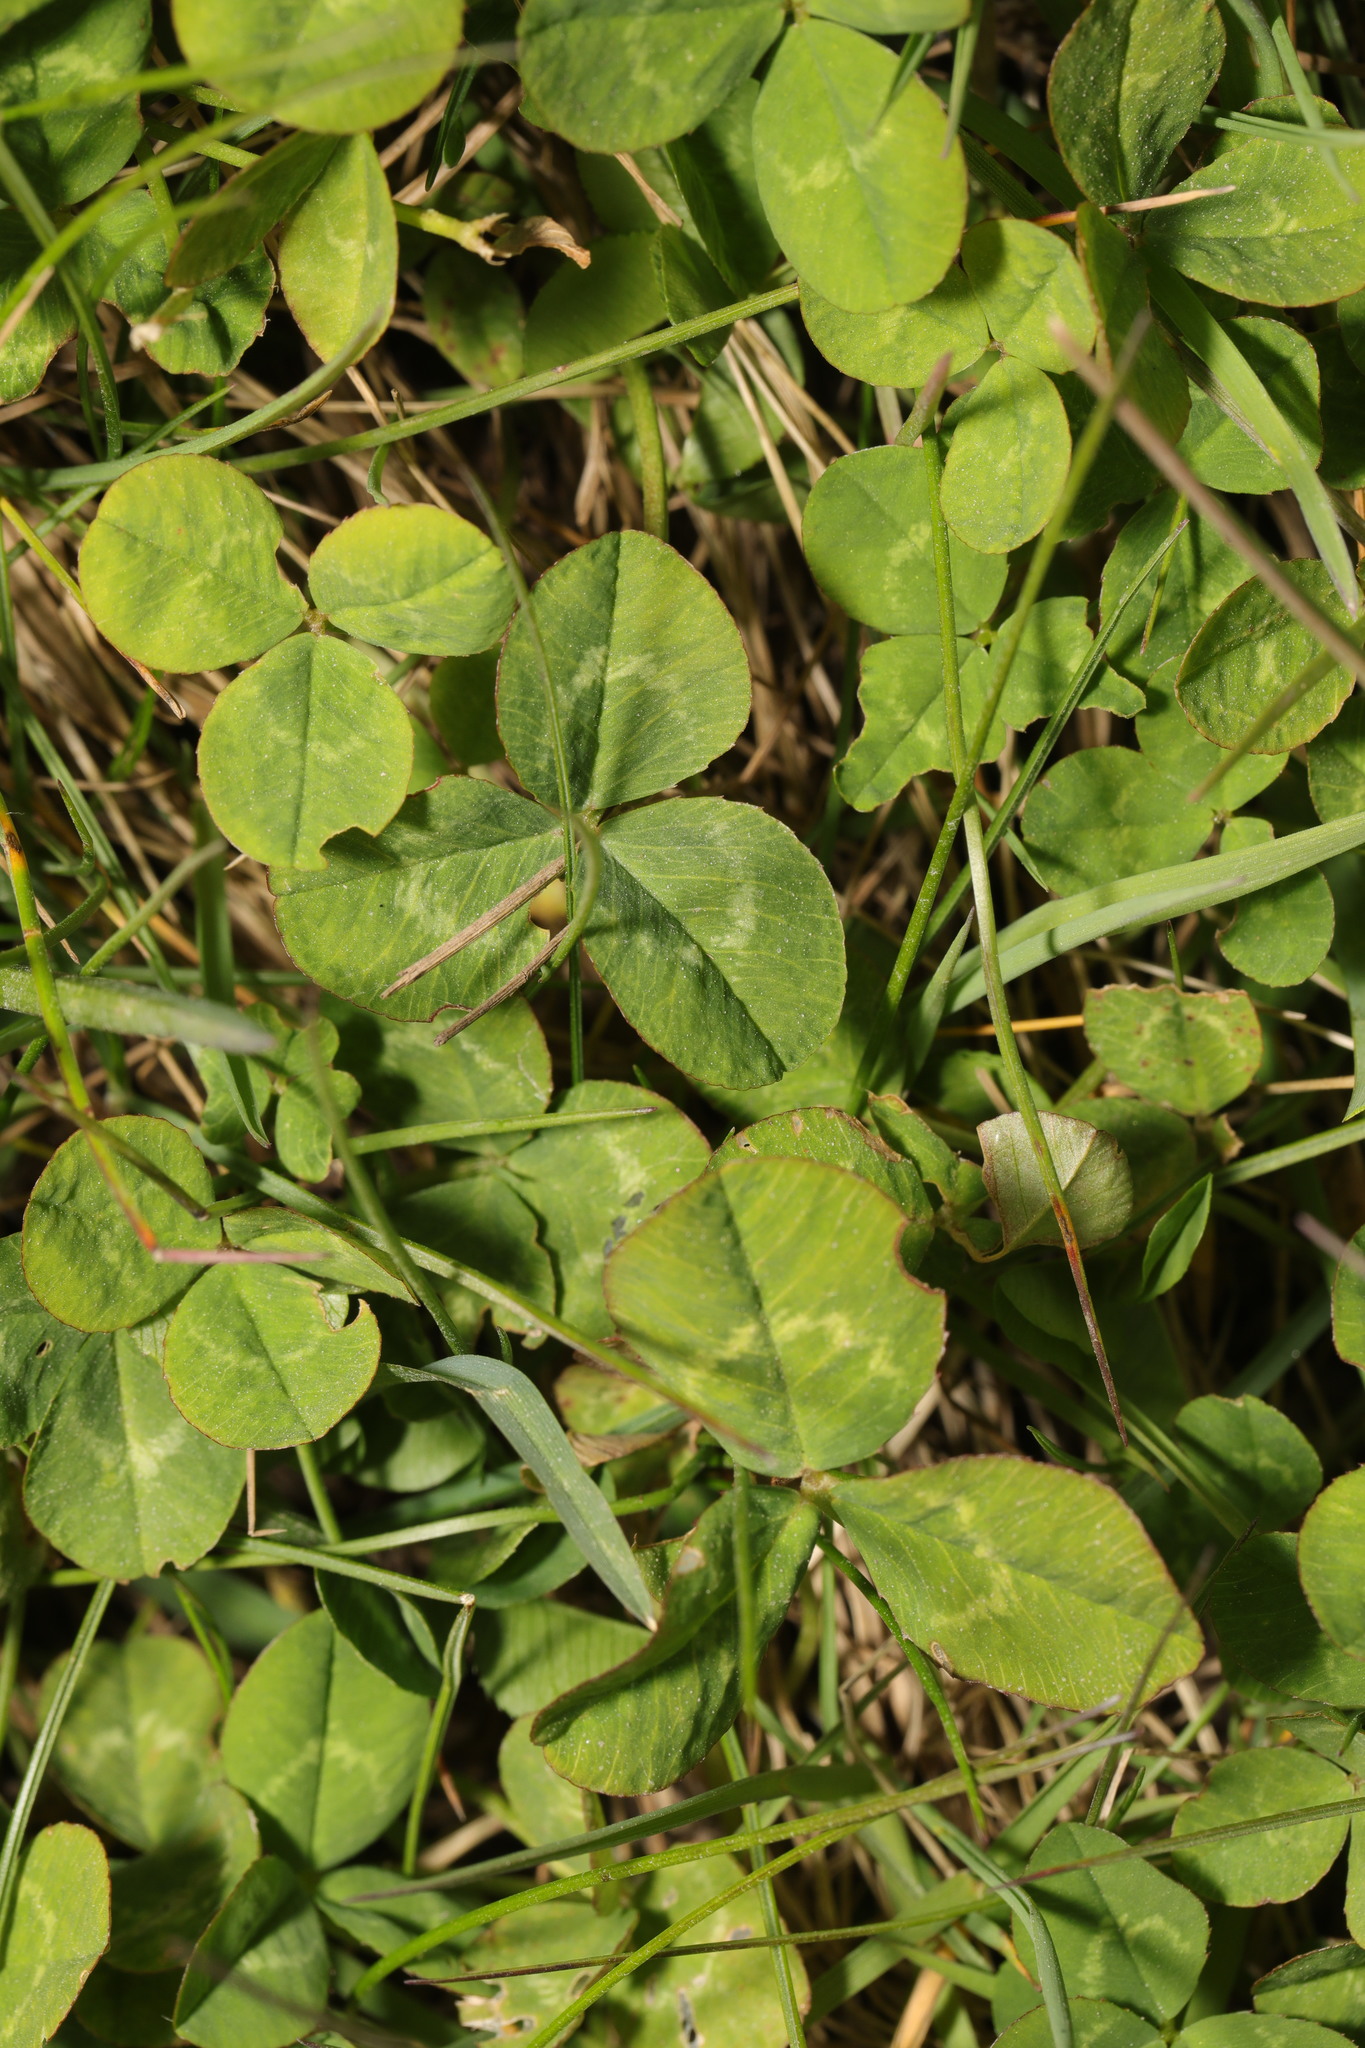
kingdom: Plantae
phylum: Tracheophyta
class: Magnoliopsida
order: Fabales
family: Fabaceae
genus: Trifolium
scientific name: Trifolium repens
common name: White clover
